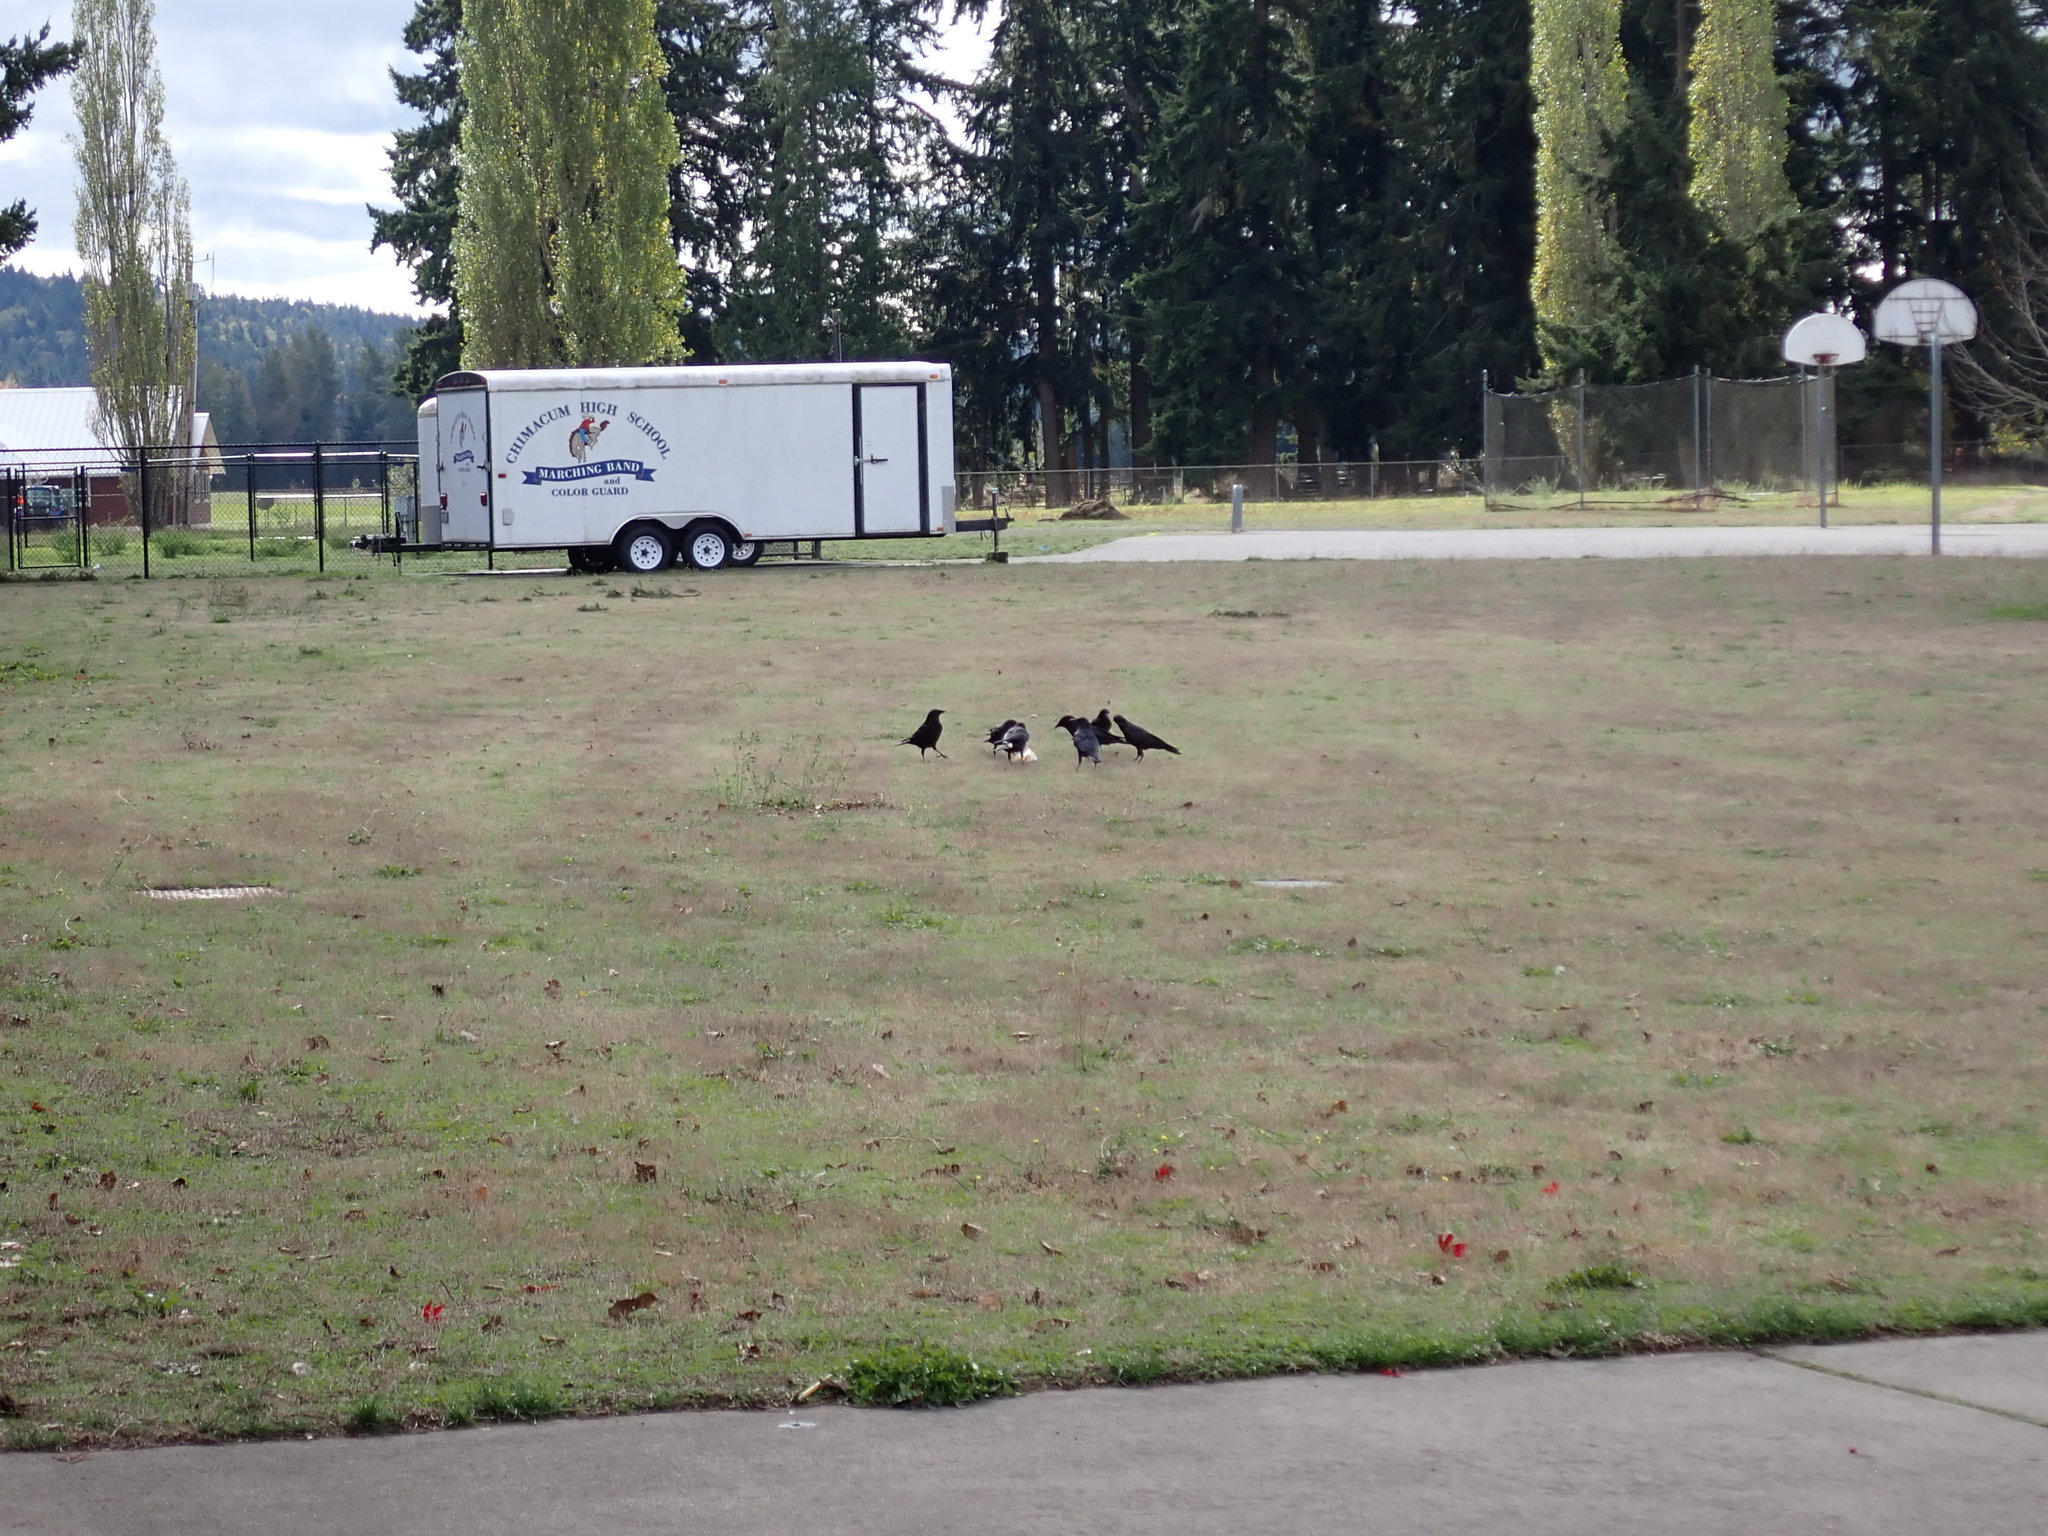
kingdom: Animalia
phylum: Chordata
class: Aves
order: Passeriformes
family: Corvidae
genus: Corvus
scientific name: Corvus brachyrhynchos
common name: American crow
